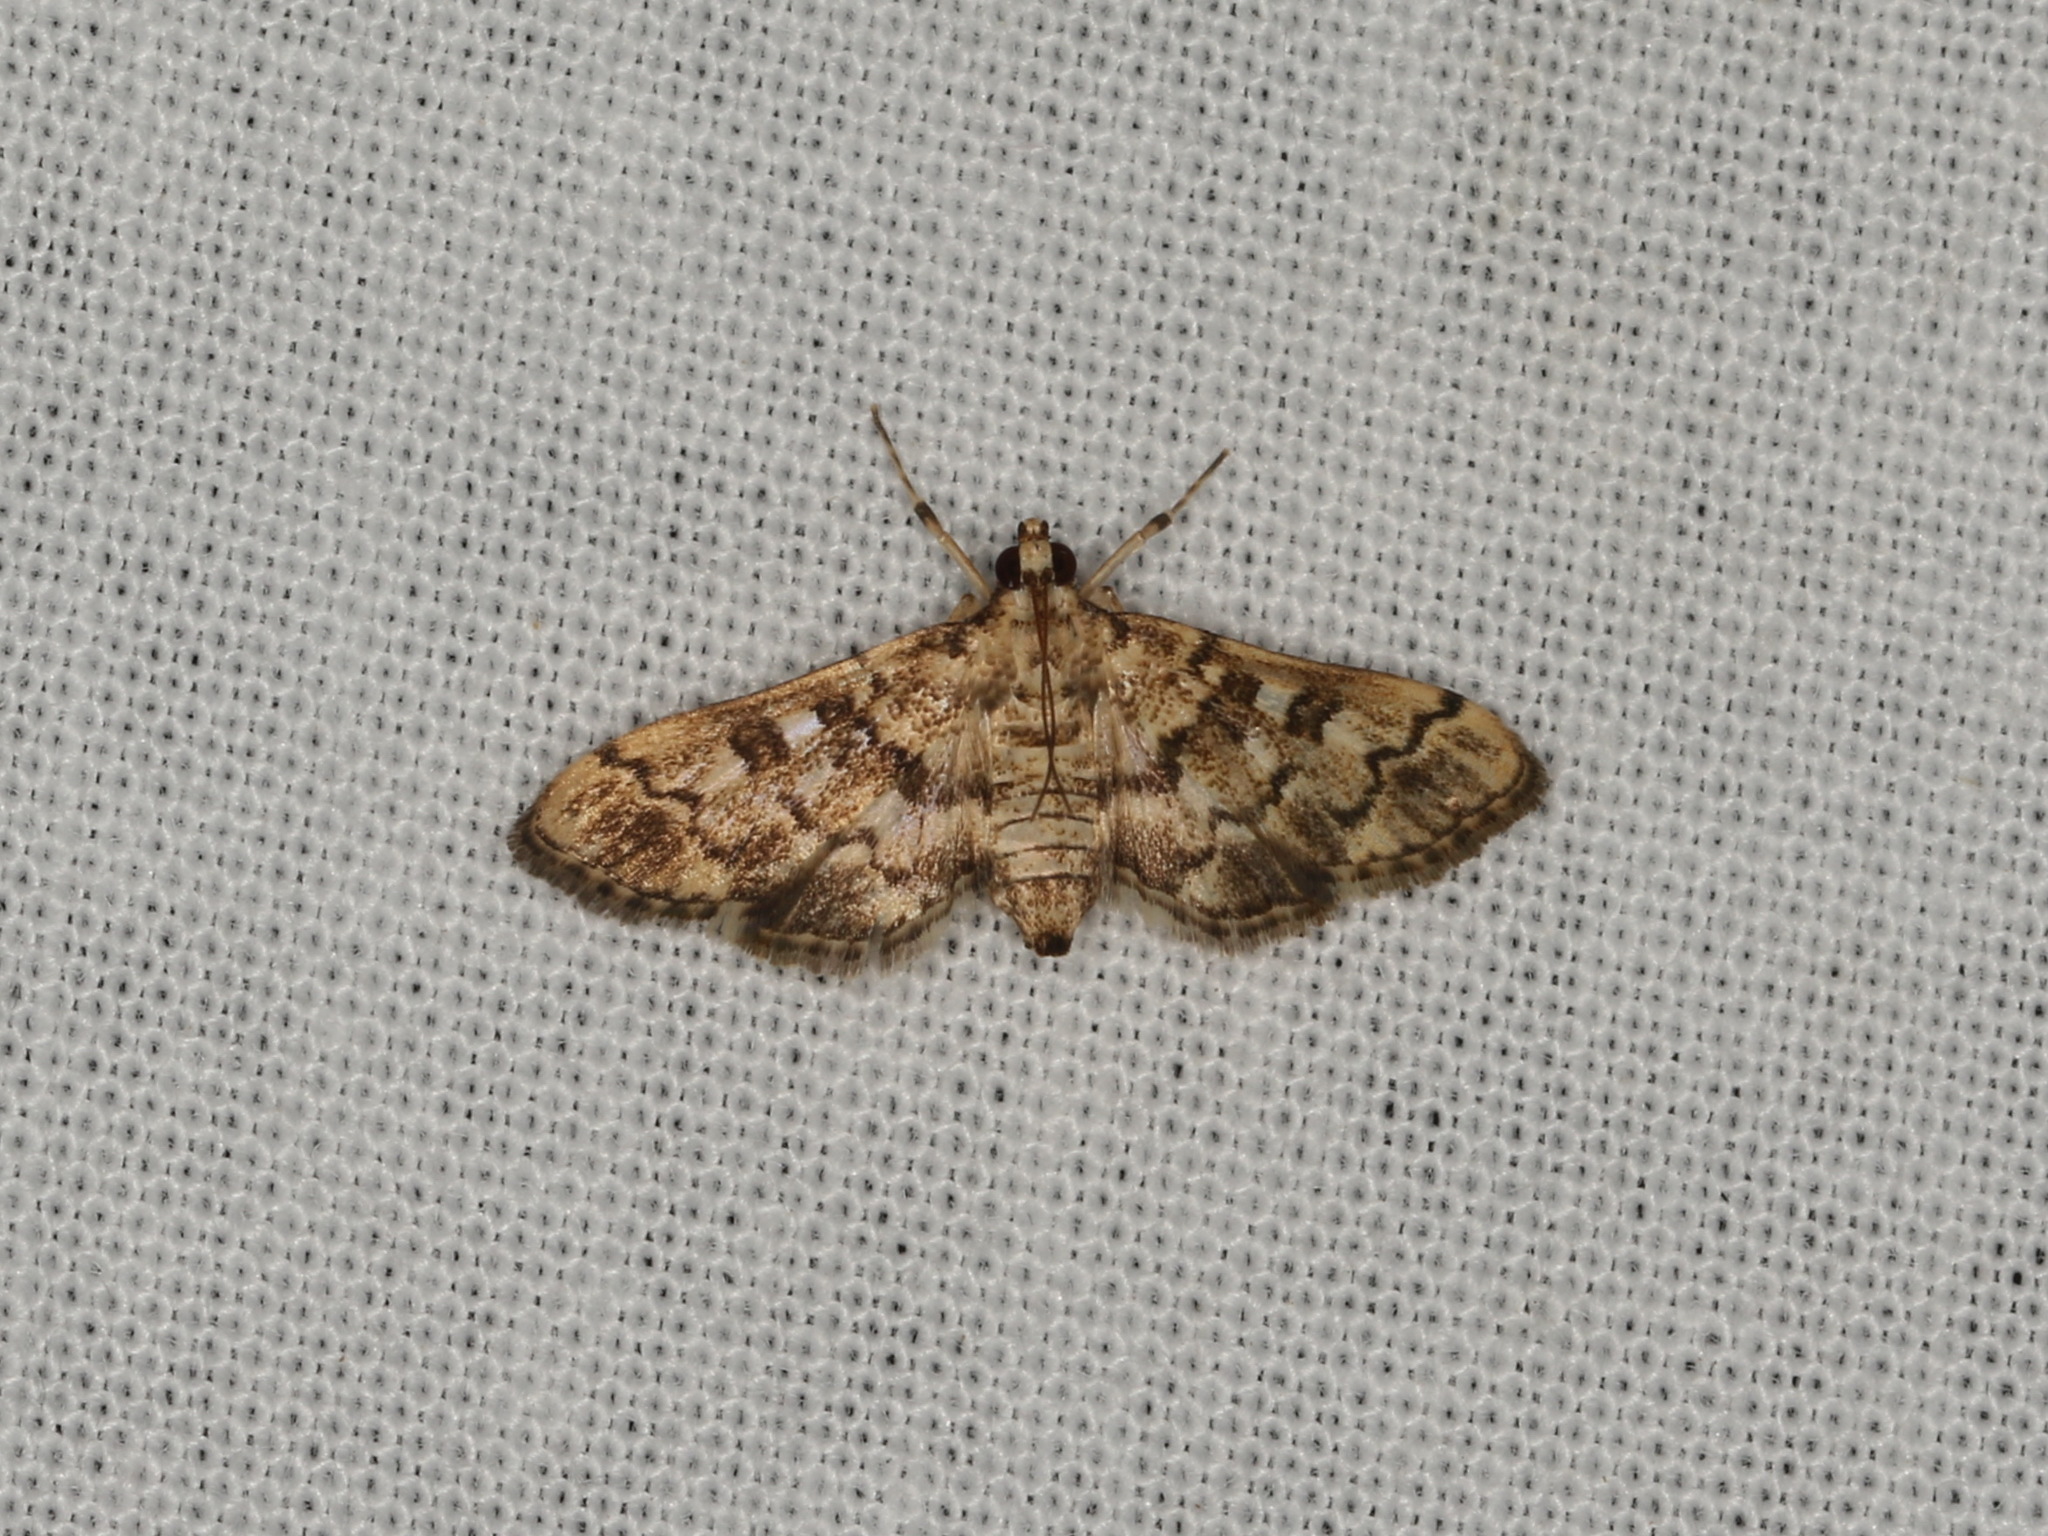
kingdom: Animalia
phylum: Arthropoda
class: Insecta
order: Lepidoptera
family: Crambidae
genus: Nacoleia
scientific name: Nacoleia rhoeoalis
